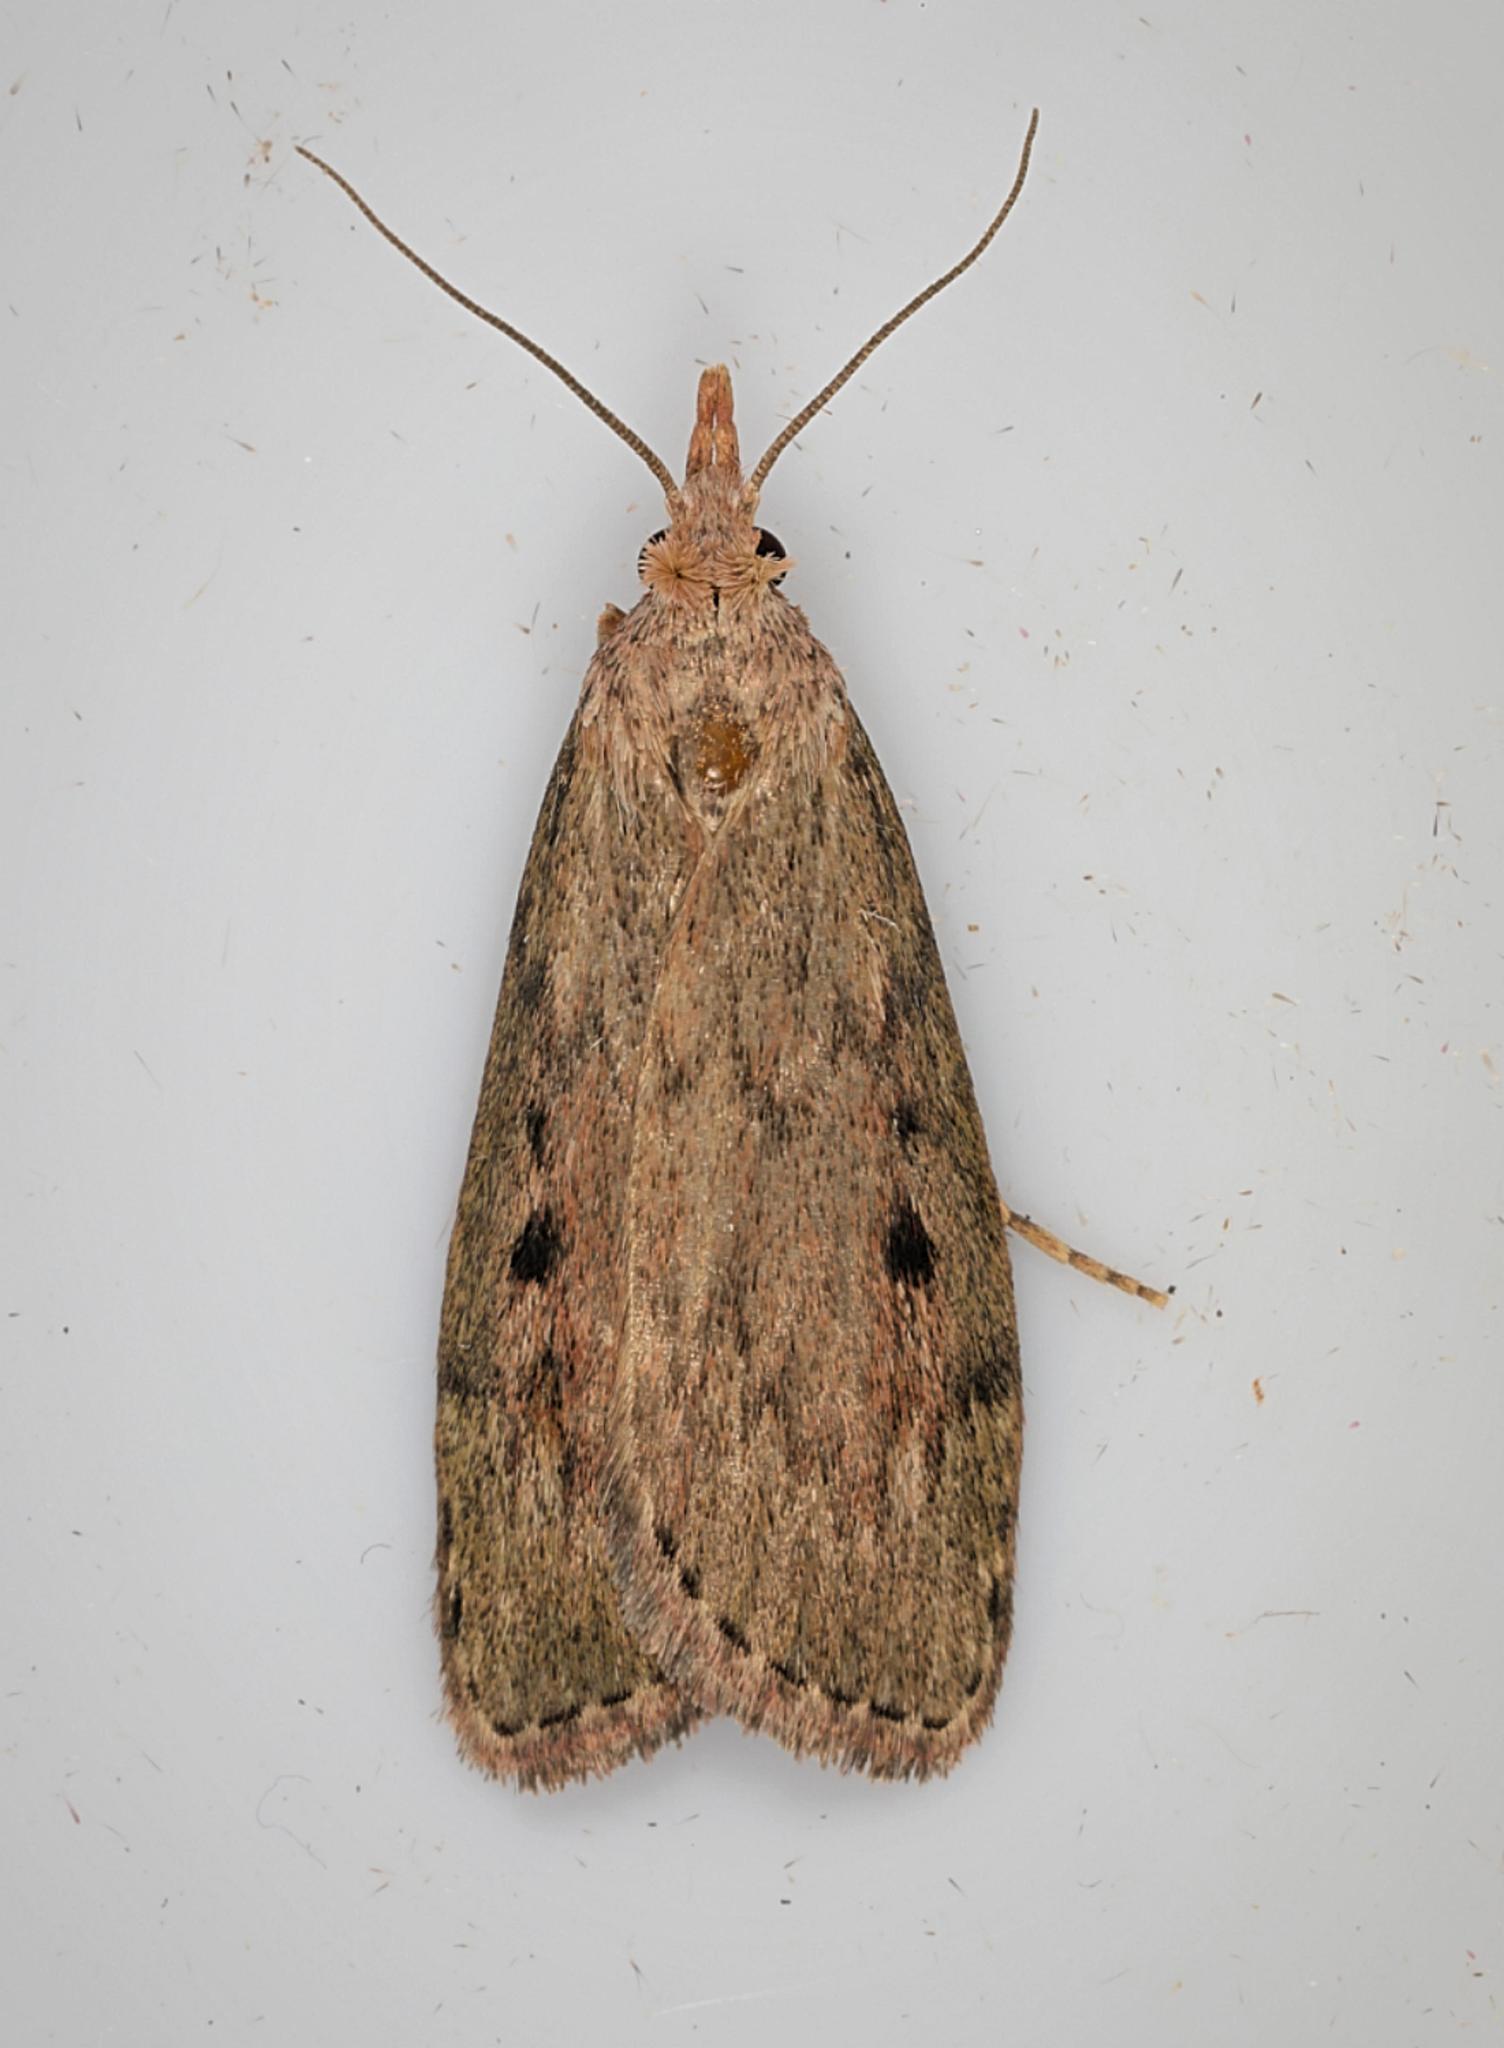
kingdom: Animalia
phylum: Arthropoda
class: Insecta
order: Lepidoptera
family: Pyralidae
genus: Aphomia
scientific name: Aphomia sociella
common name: Bee moth
